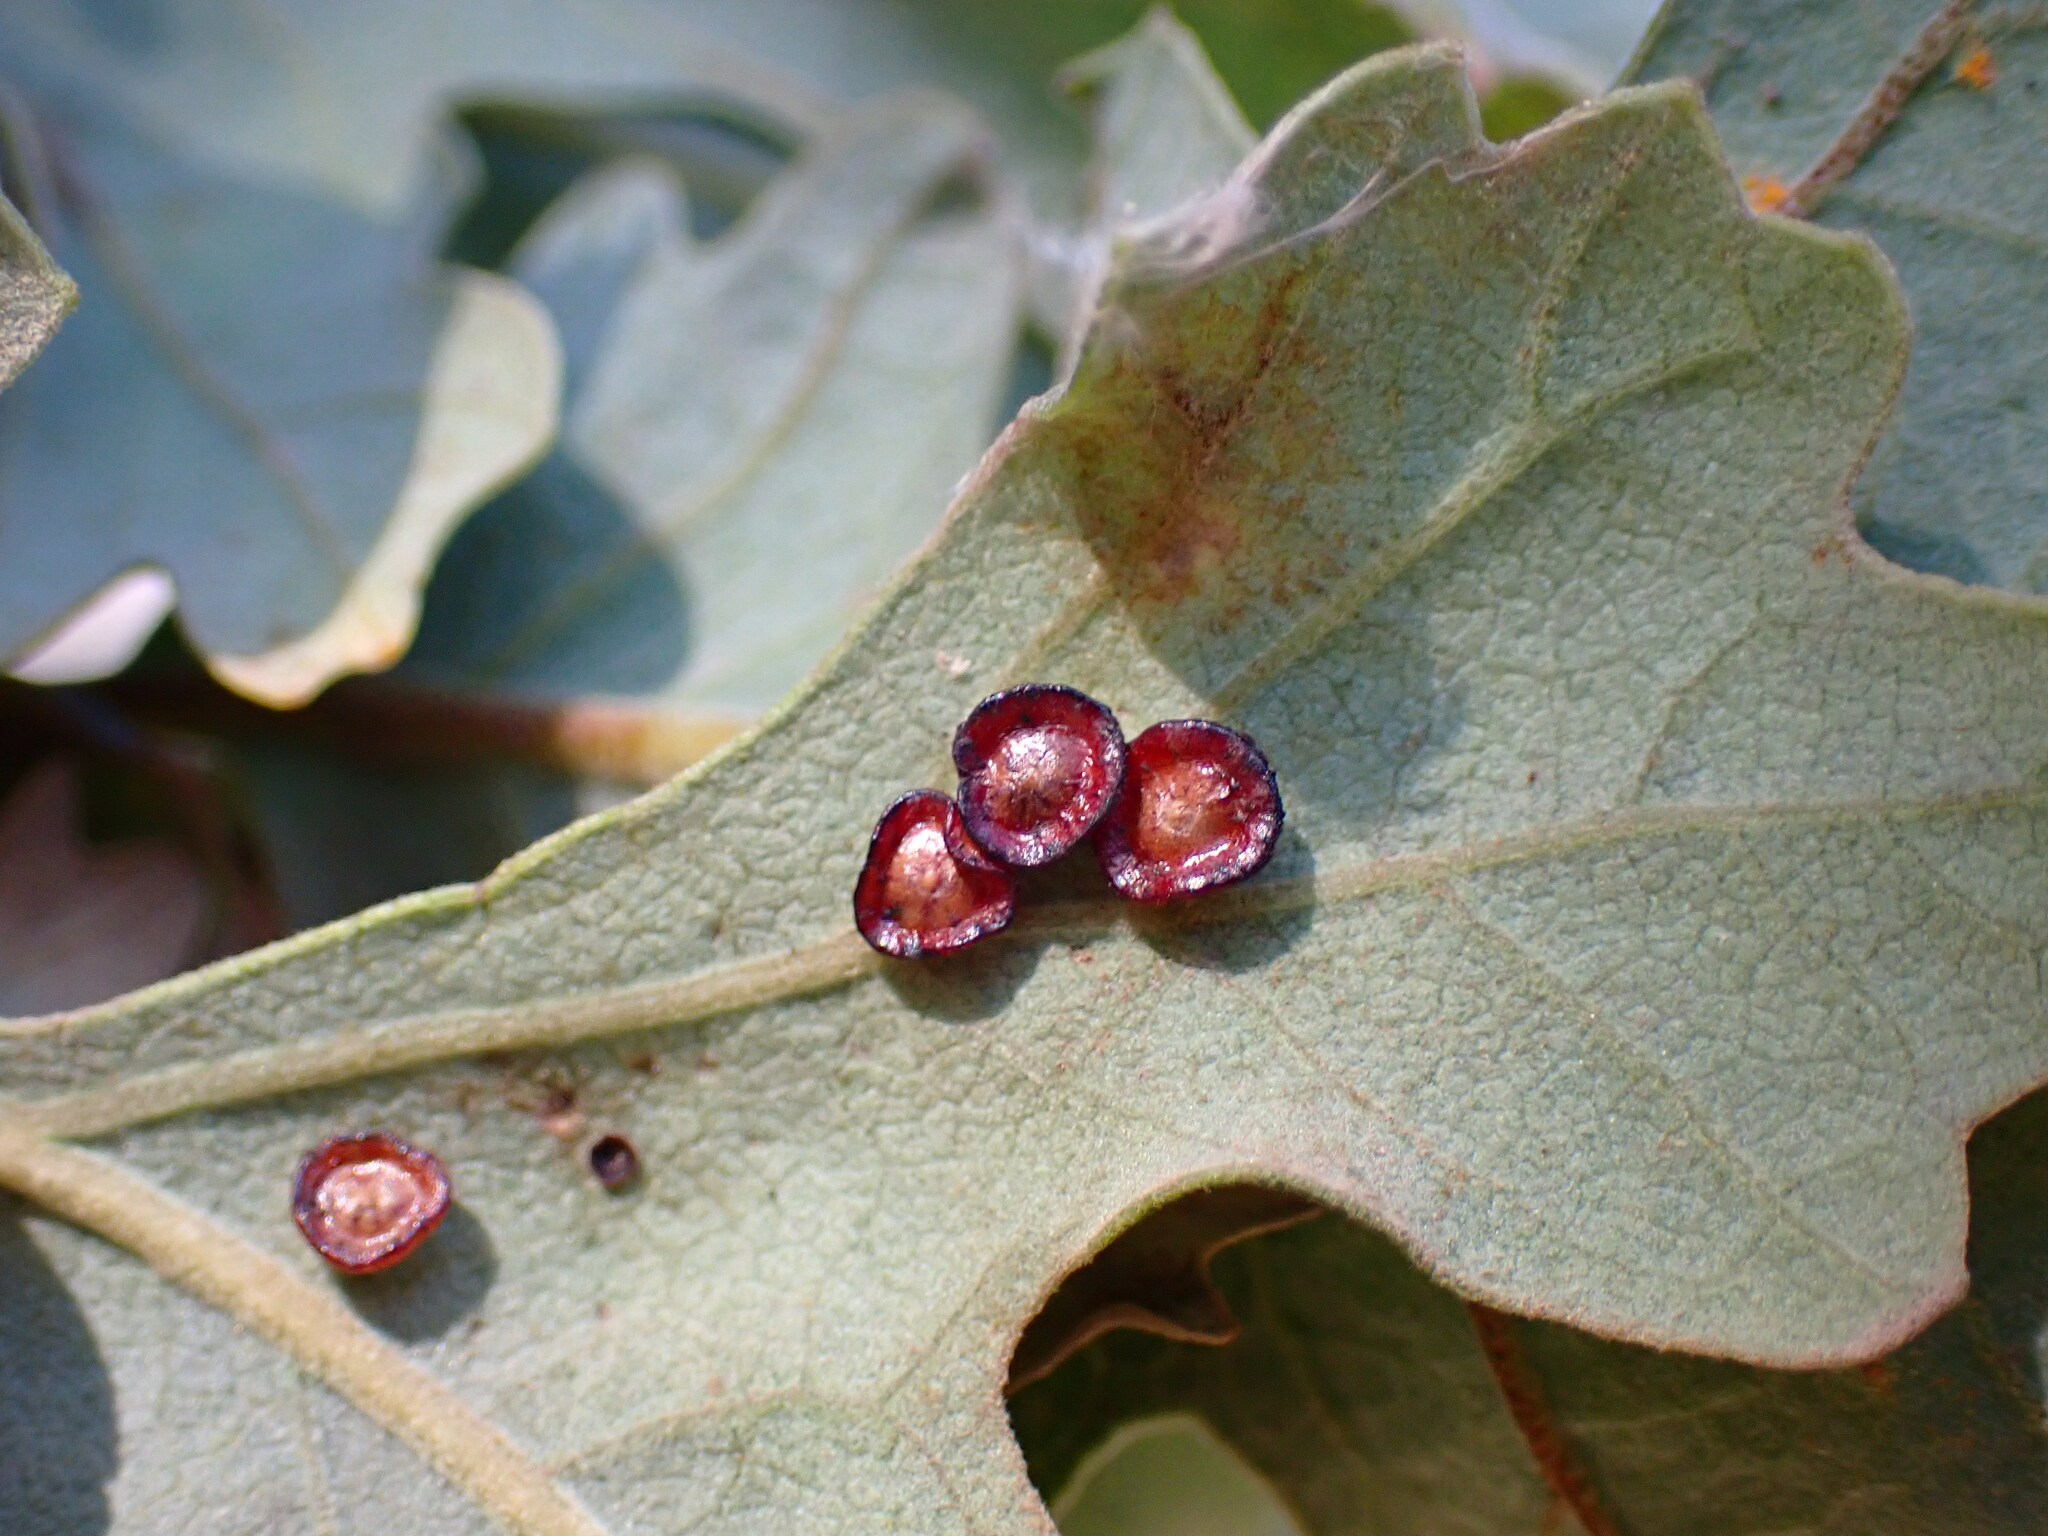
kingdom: Animalia
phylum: Arthropoda
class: Insecta
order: Hymenoptera
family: Cynipidae
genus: Andricus
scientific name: Andricus
